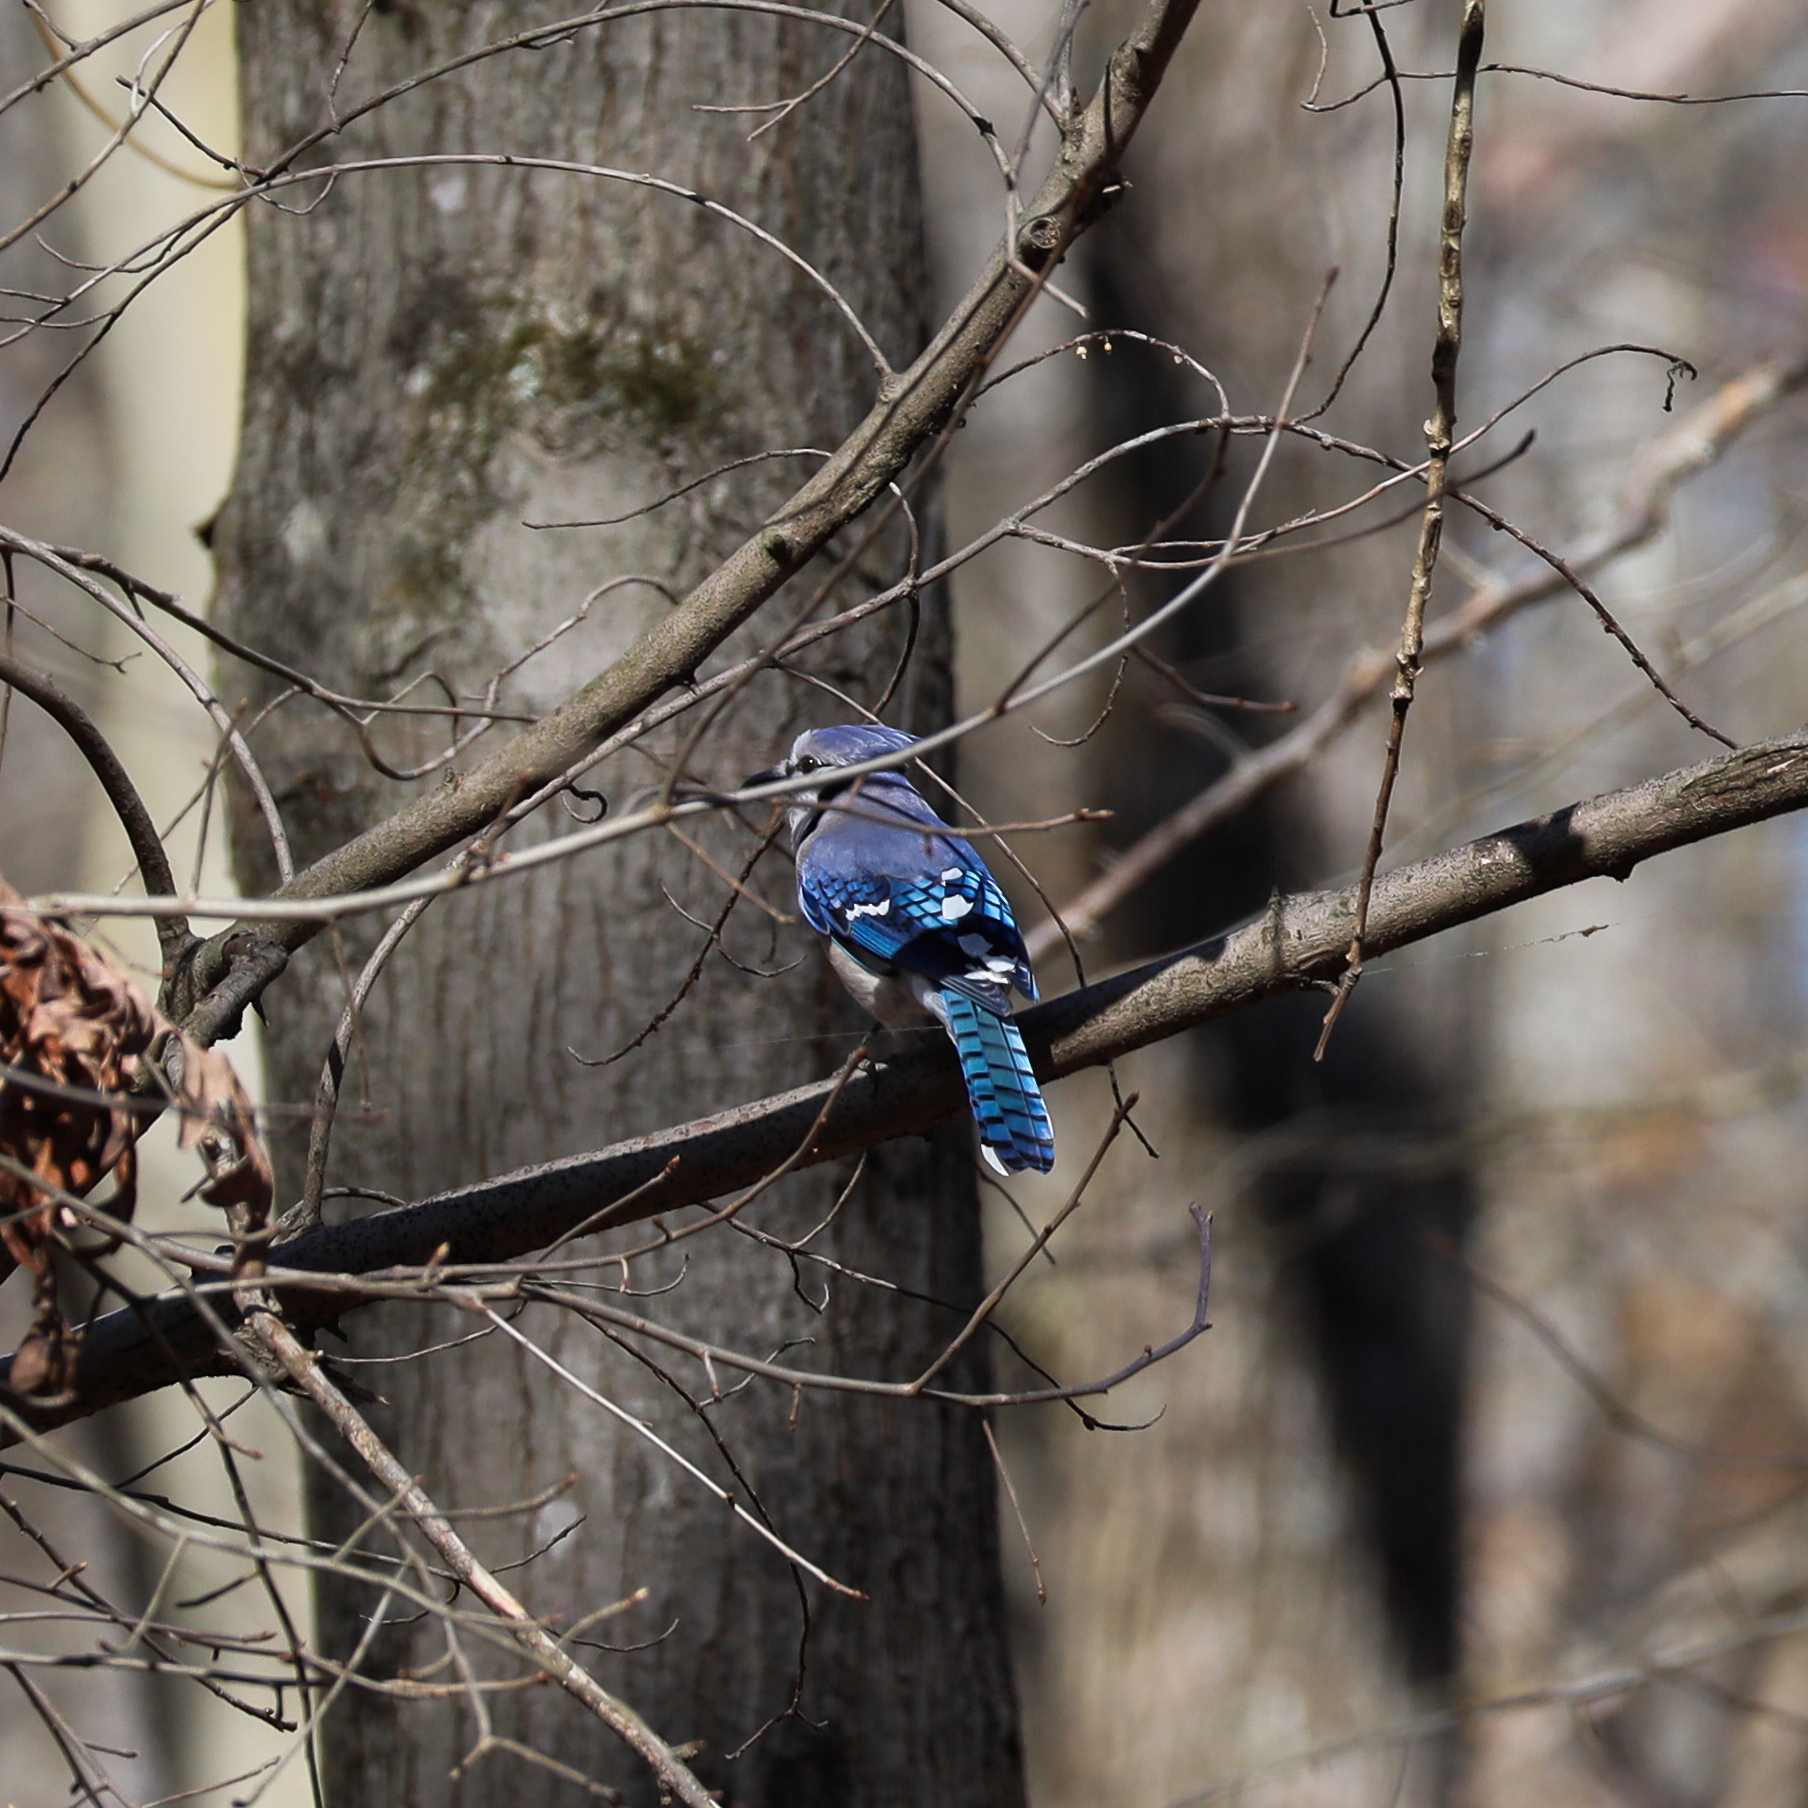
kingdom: Animalia
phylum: Chordata
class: Aves
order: Passeriformes
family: Corvidae
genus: Cyanocitta
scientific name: Cyanocitta cristata
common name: Blue jay
